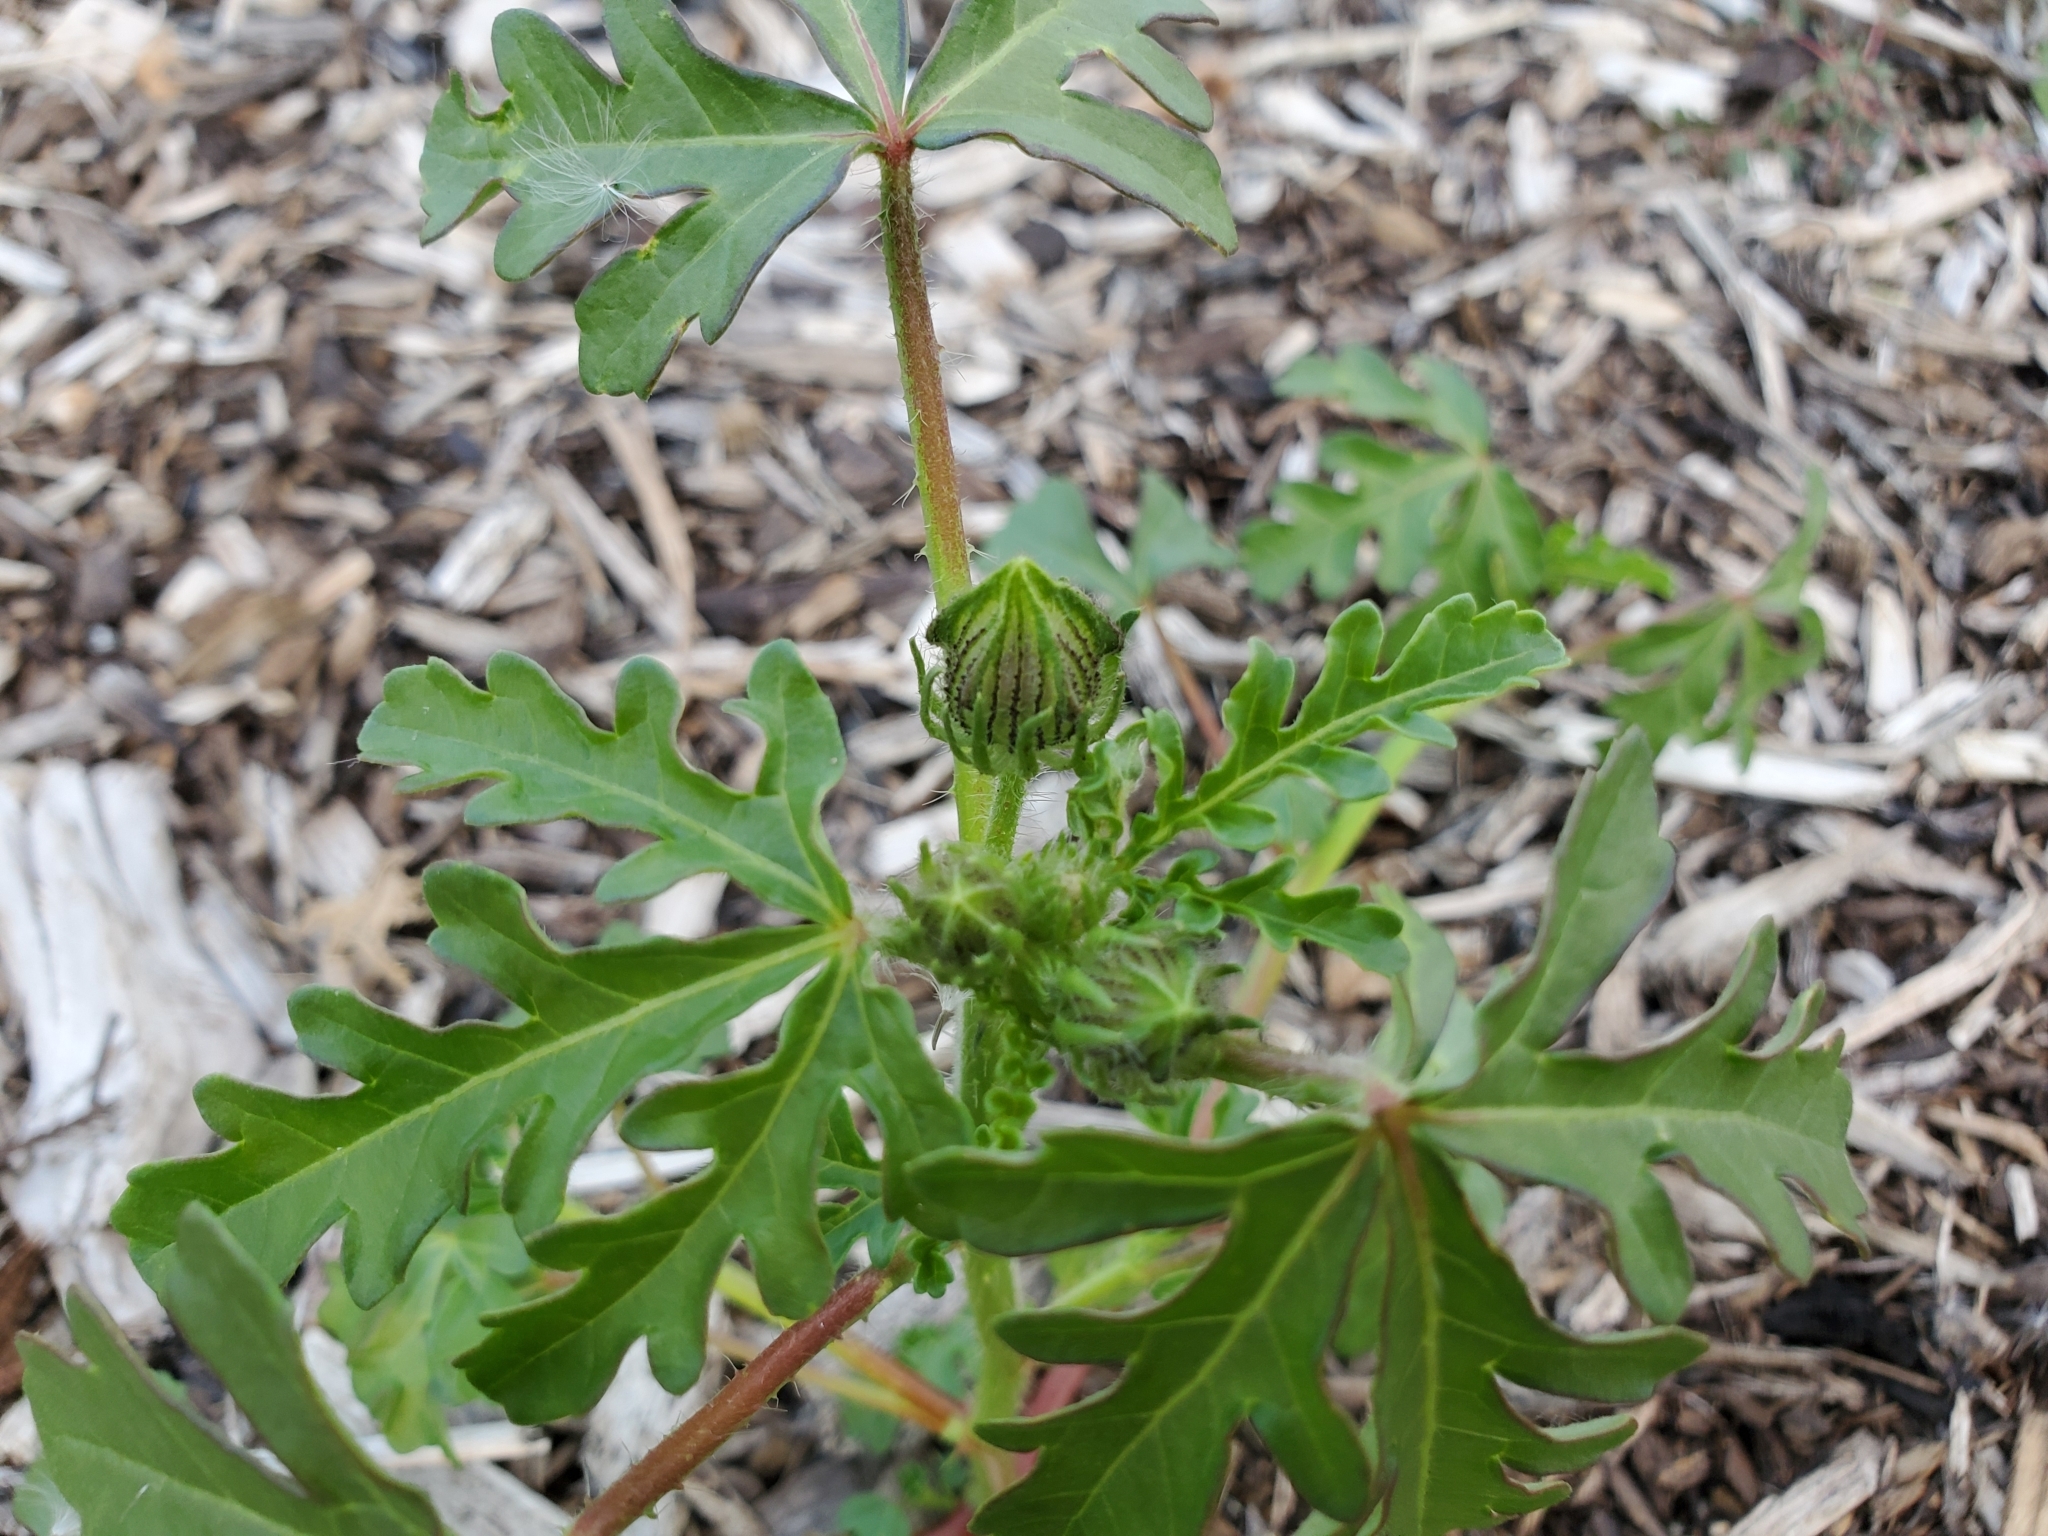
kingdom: Plantae
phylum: Tracheophyta
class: Magnoliopsida
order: Malvales
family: Malvaceae
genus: Hibiscus
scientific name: Hibiscus trionum
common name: Bladder ketmia
